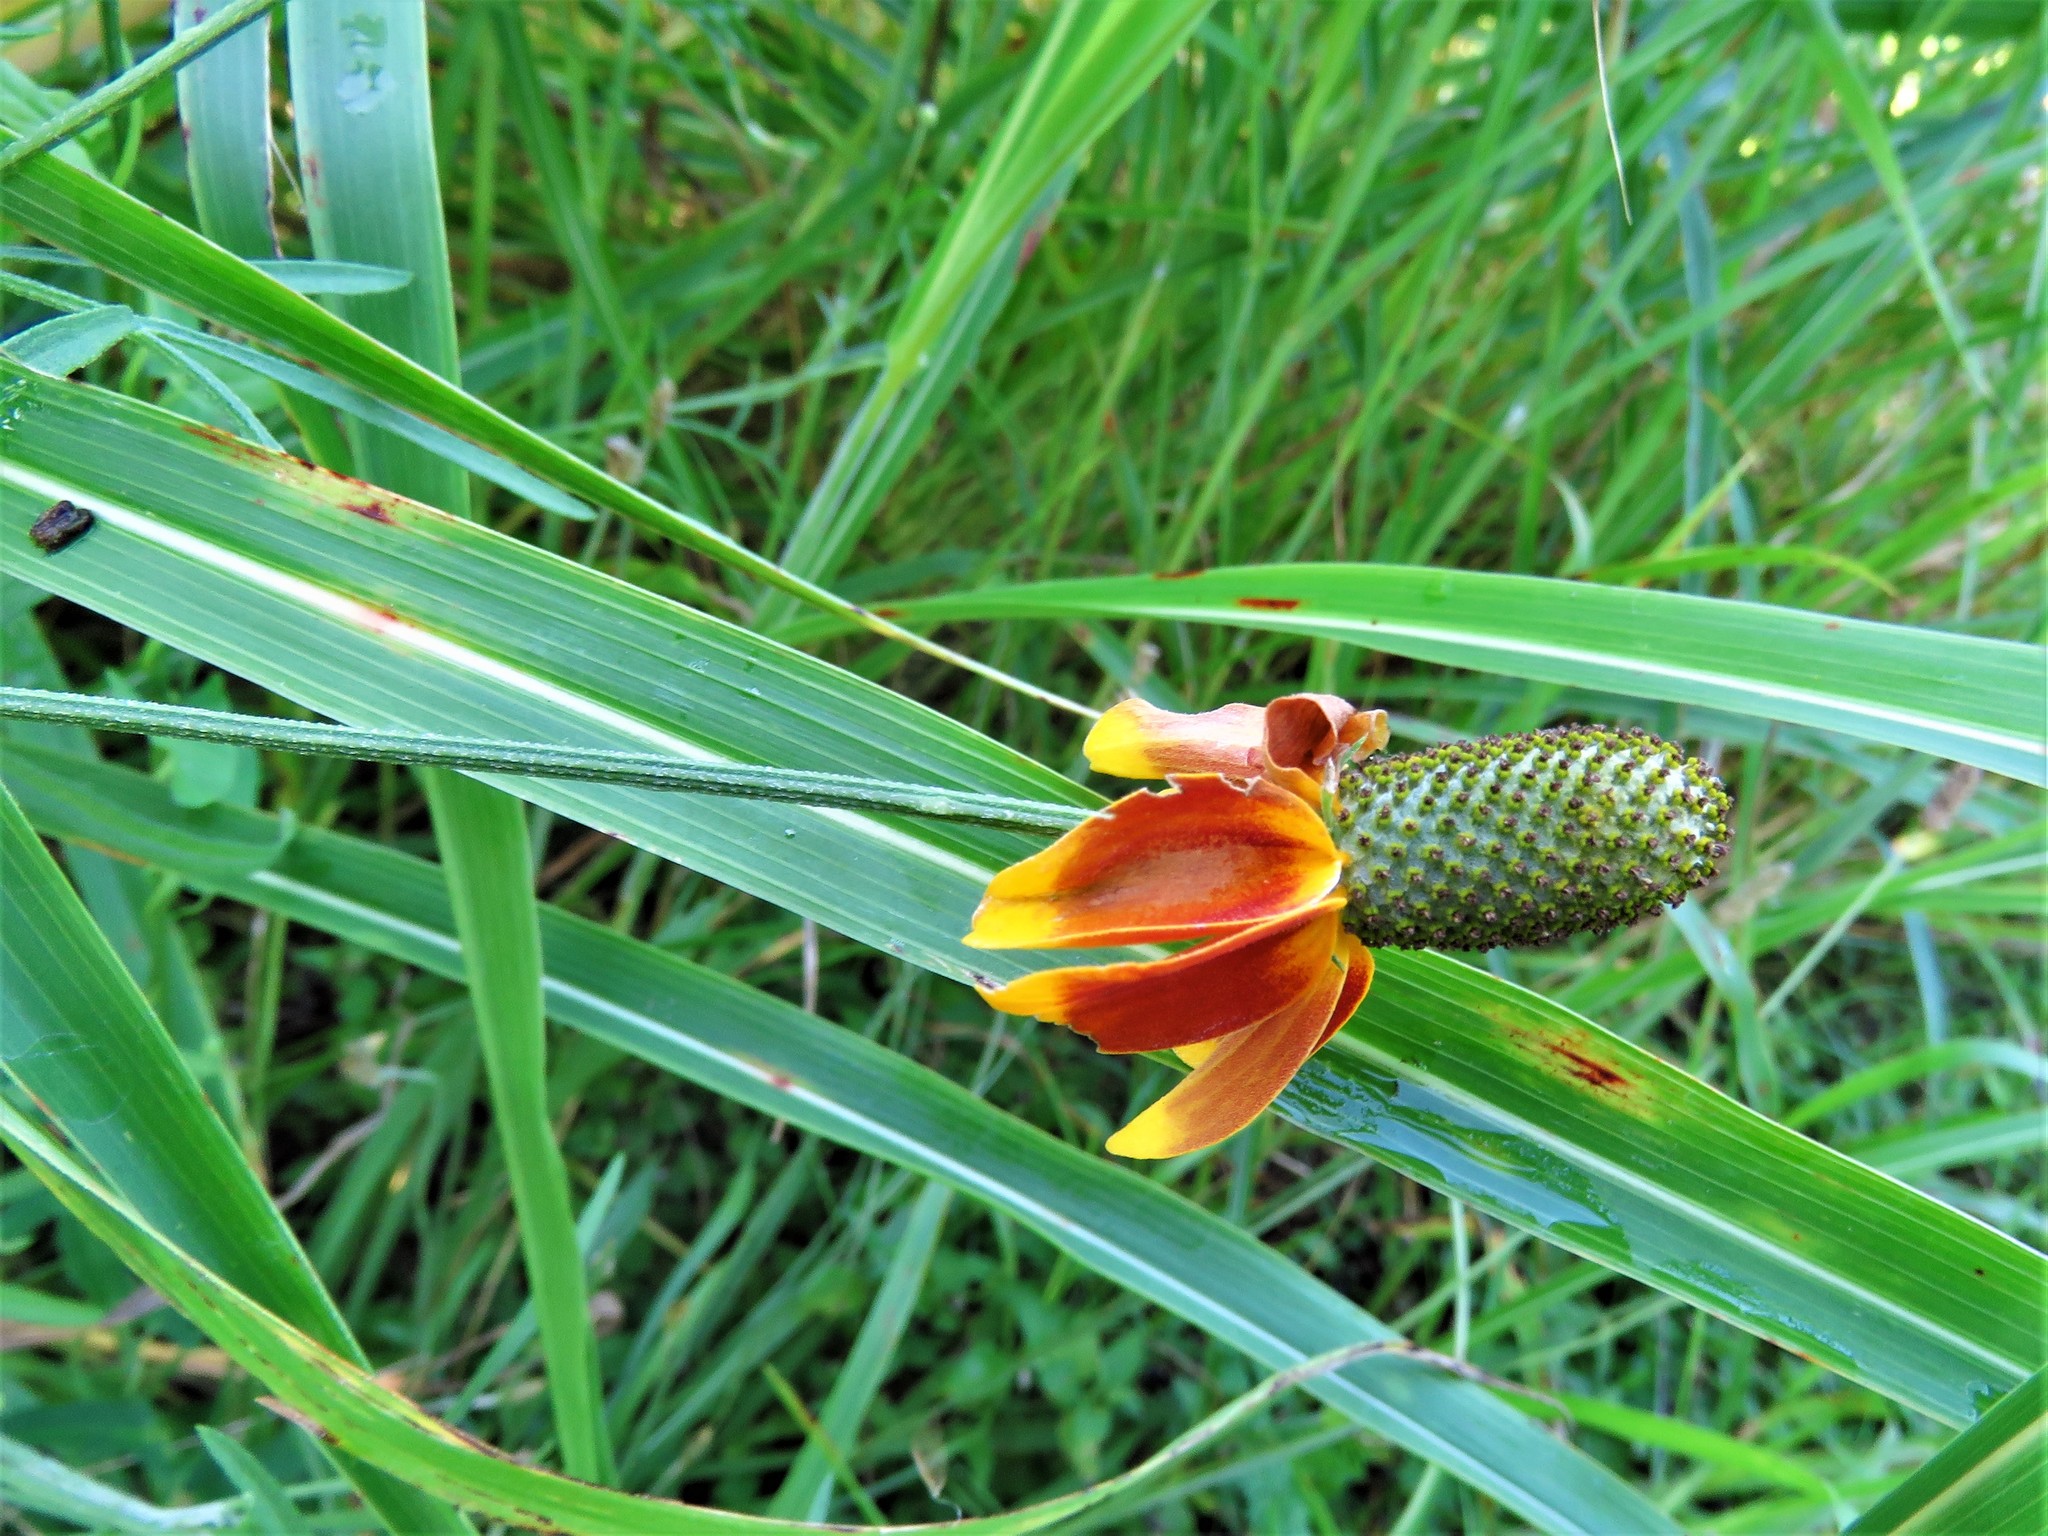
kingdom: Plantae
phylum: Tracheophyta
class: Magnoliopsida
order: Asterales
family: Asteraceae
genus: Ratibida
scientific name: Ratibida columnifera
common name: Prairie coneflower
